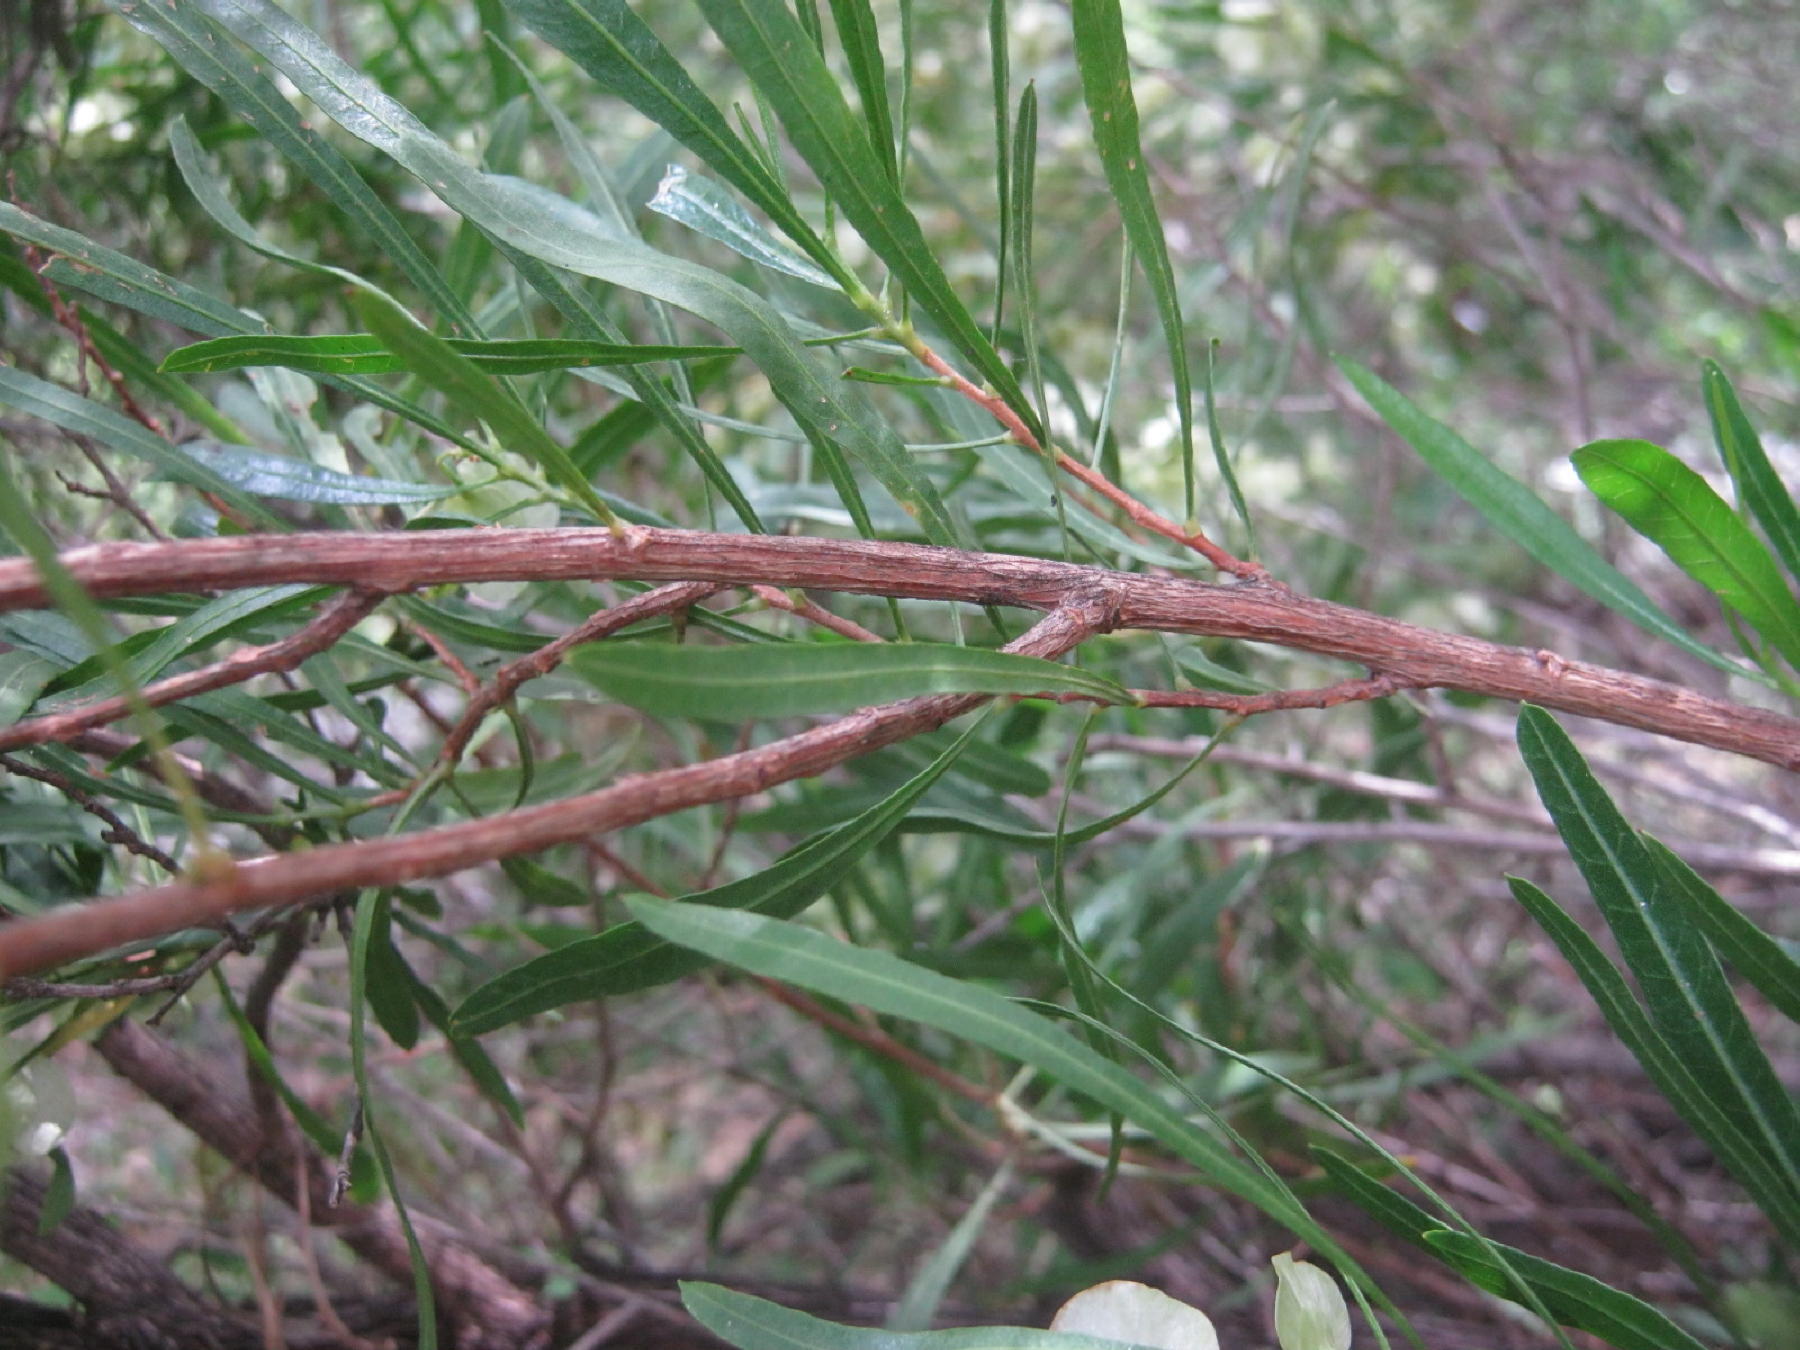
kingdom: Plantae
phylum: Tracheophyta
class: Magnoliopsida
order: Sapindales
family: Sapindaceae
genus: Dodonaea
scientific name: Dodonaea viscosa
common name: Hopbush
